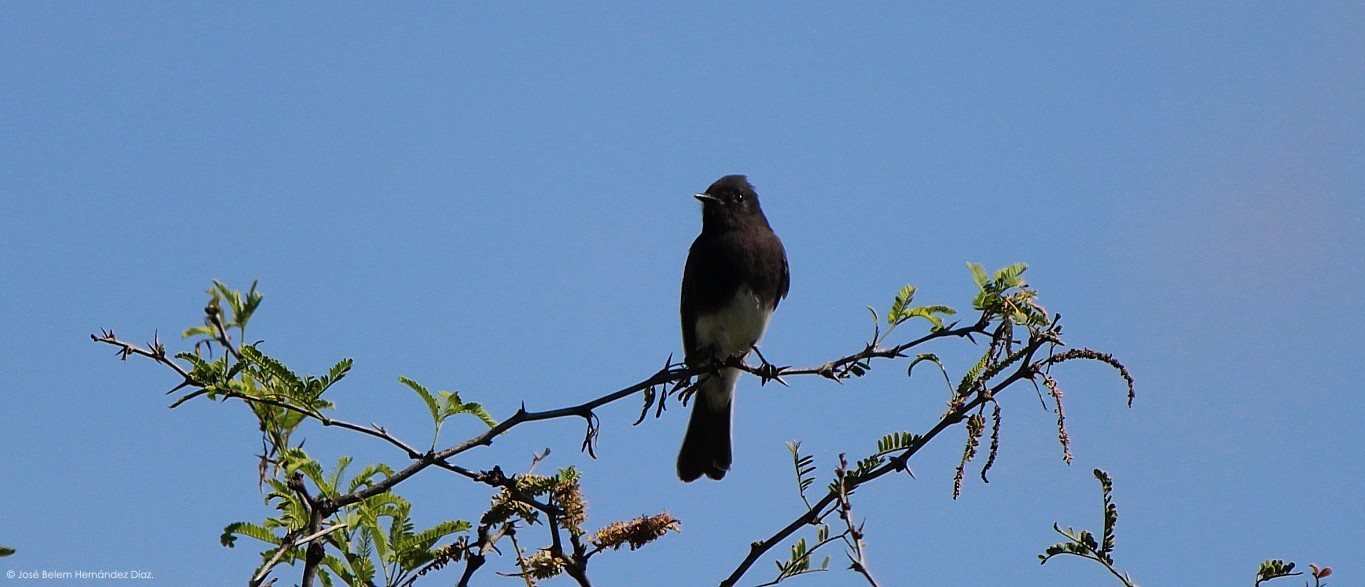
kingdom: Animalia
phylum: Chordata
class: Aves
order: Passeriformes
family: Tyrannidae
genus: Sayornis
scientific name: Sayornis nigricans
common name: Black phoebe
